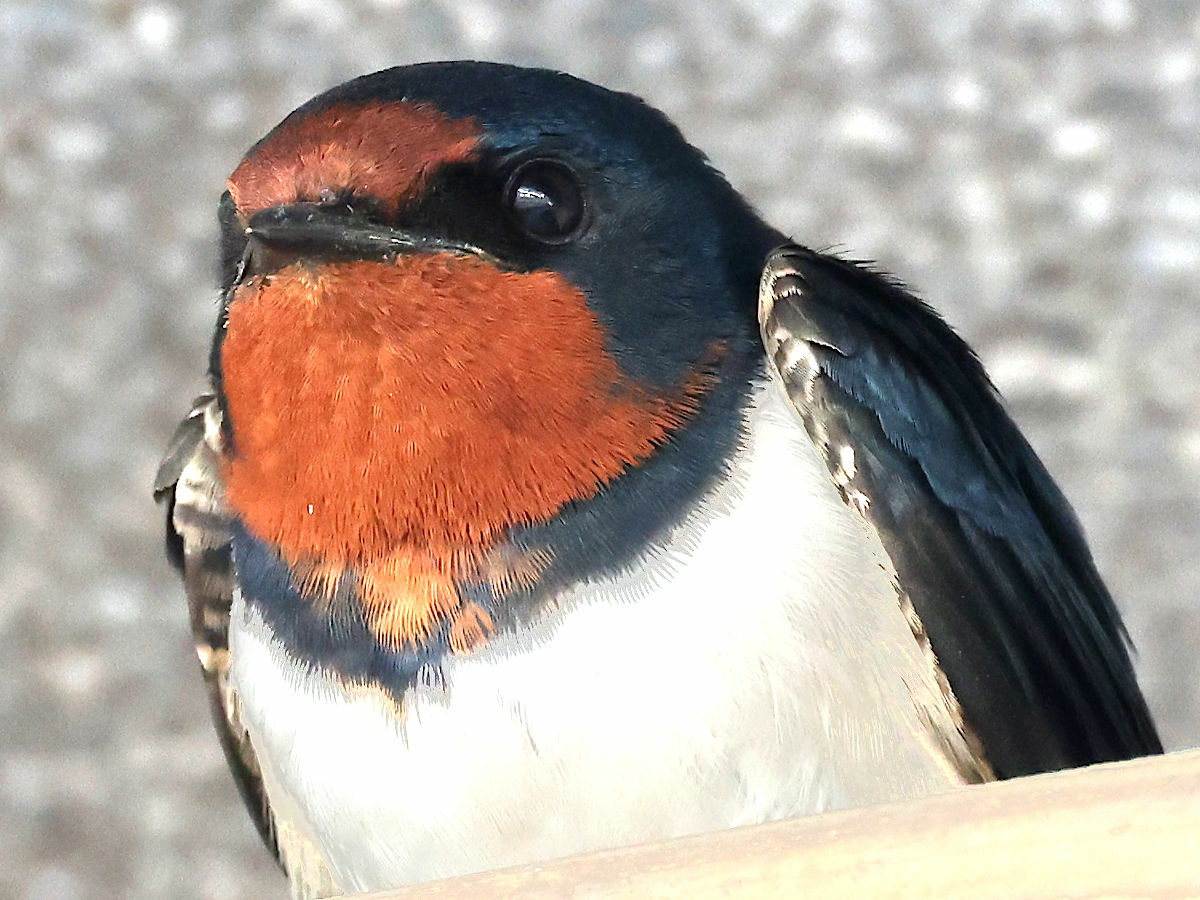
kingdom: Animalia
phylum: Chordata
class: Aves
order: Passeriformes
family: Hirundinidae
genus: Hirundo
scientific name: Hirundo rustica
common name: Barn swallow
